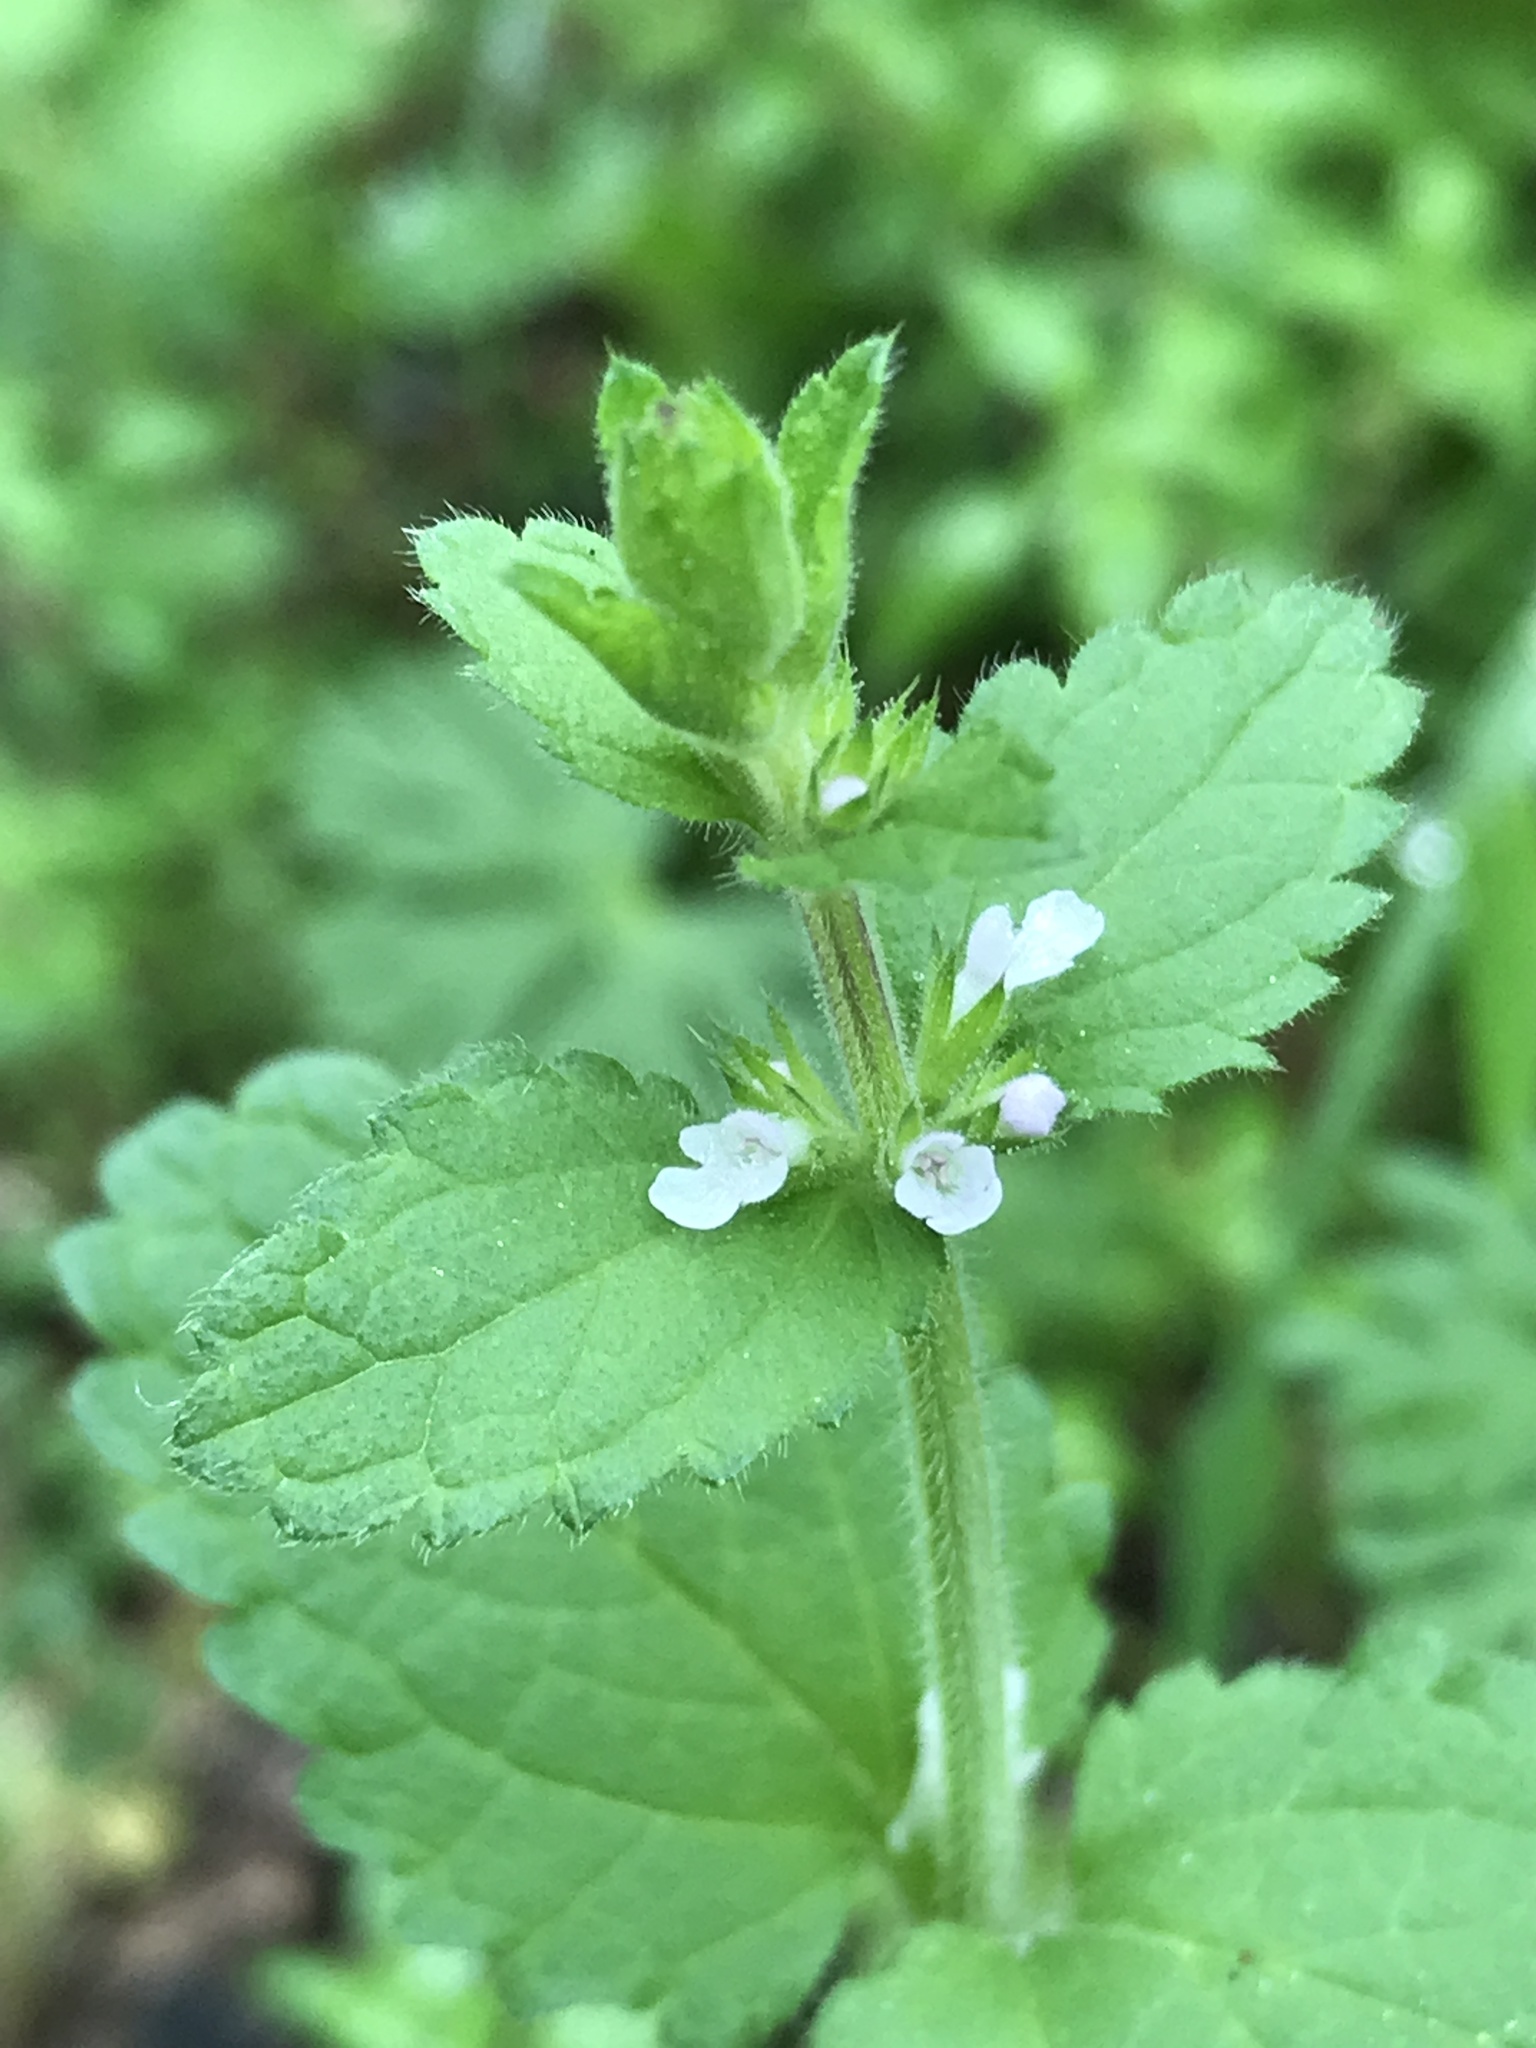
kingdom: Plantae
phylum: Tracheophyta
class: Magnoliopsida
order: Lamiales
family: Lamiaceae
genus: Stachys
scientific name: Stachys
